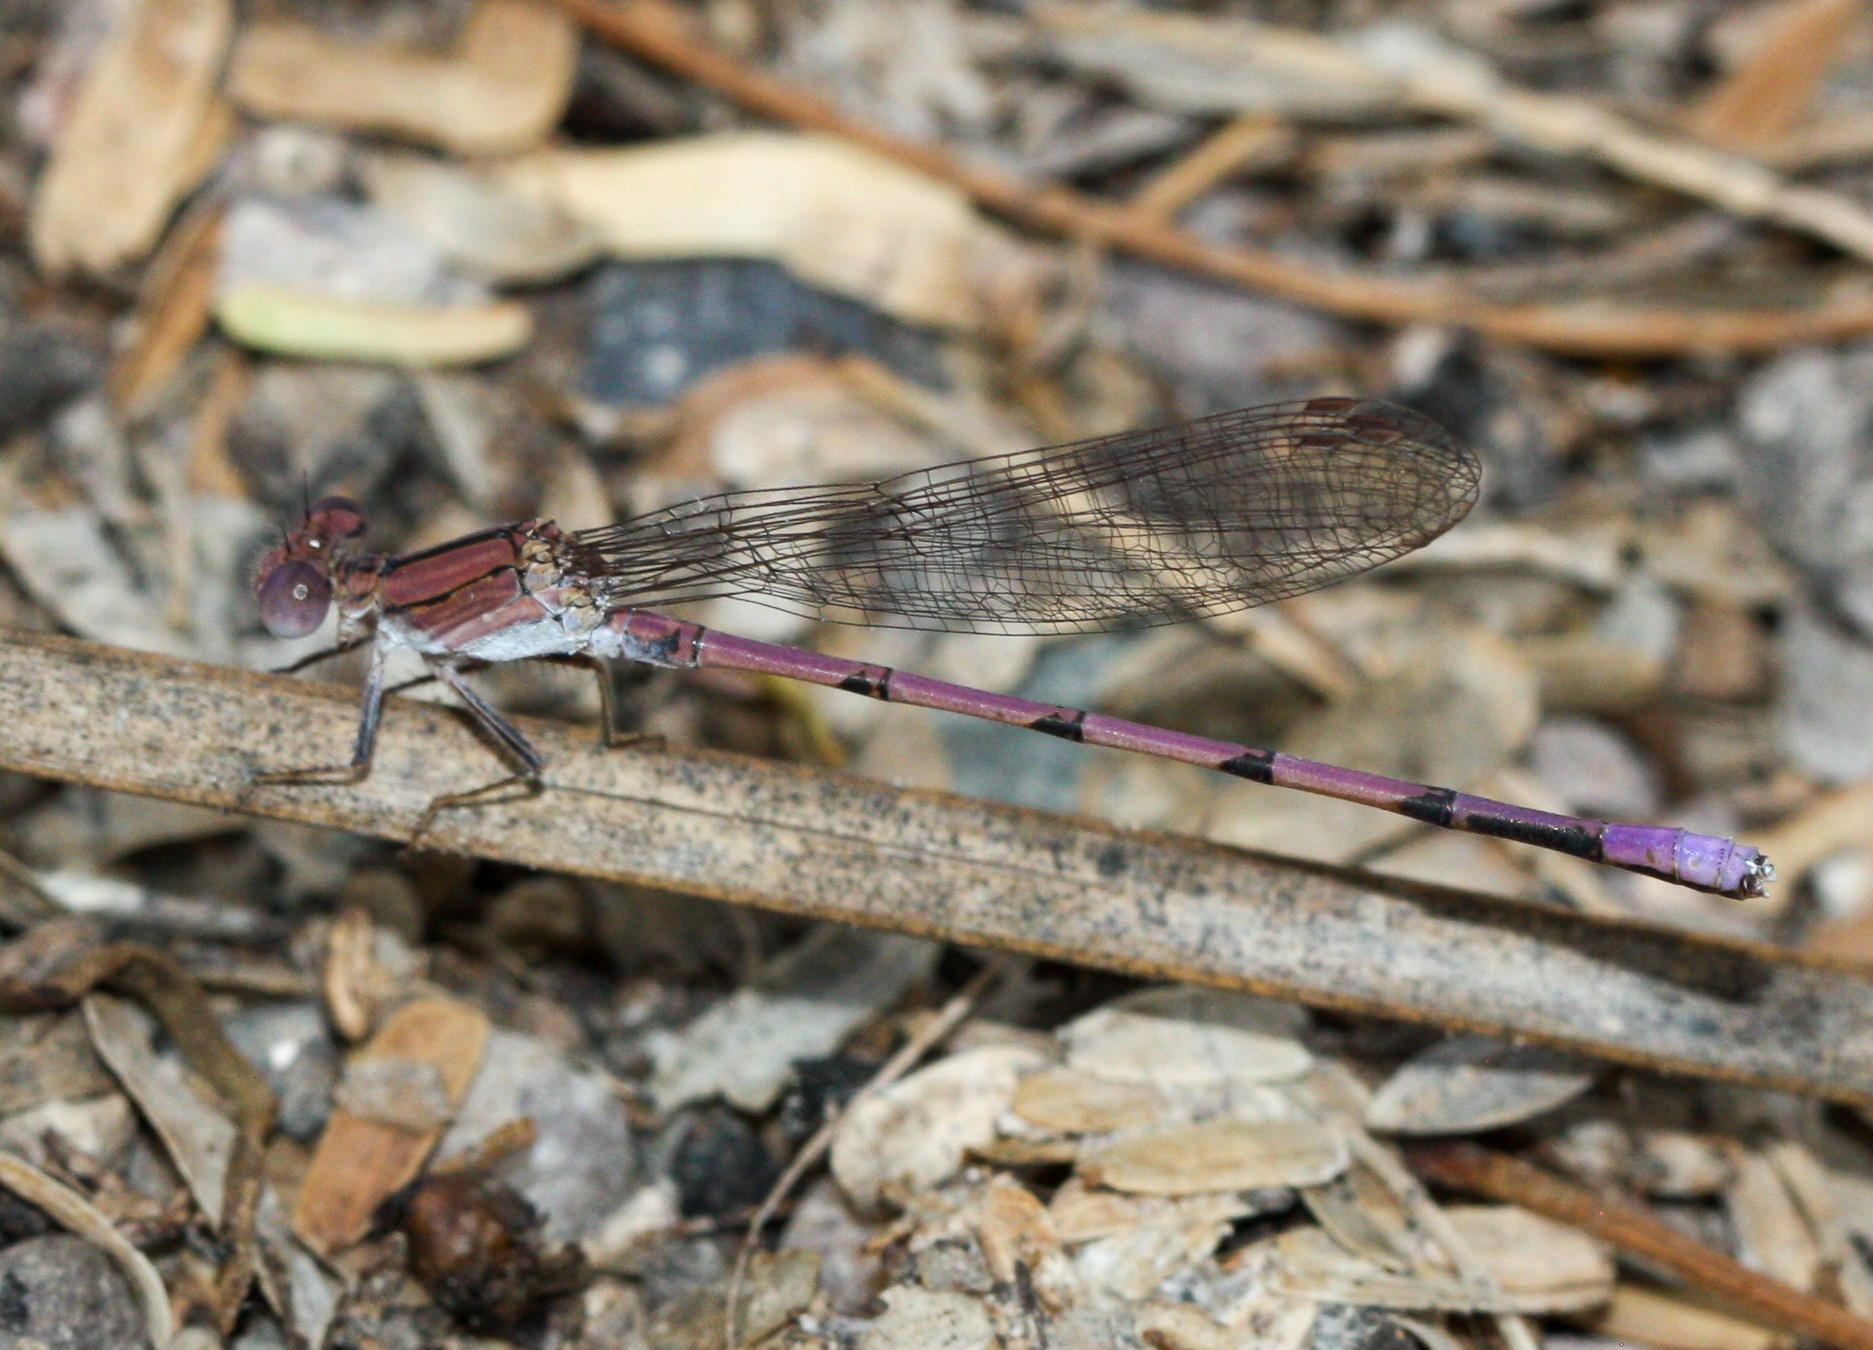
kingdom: Animalia
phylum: Arthropoda
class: Insecta
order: Odonata
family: Coenagrionidae
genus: Argia
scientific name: Argia pallens
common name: Amethyst dancer
